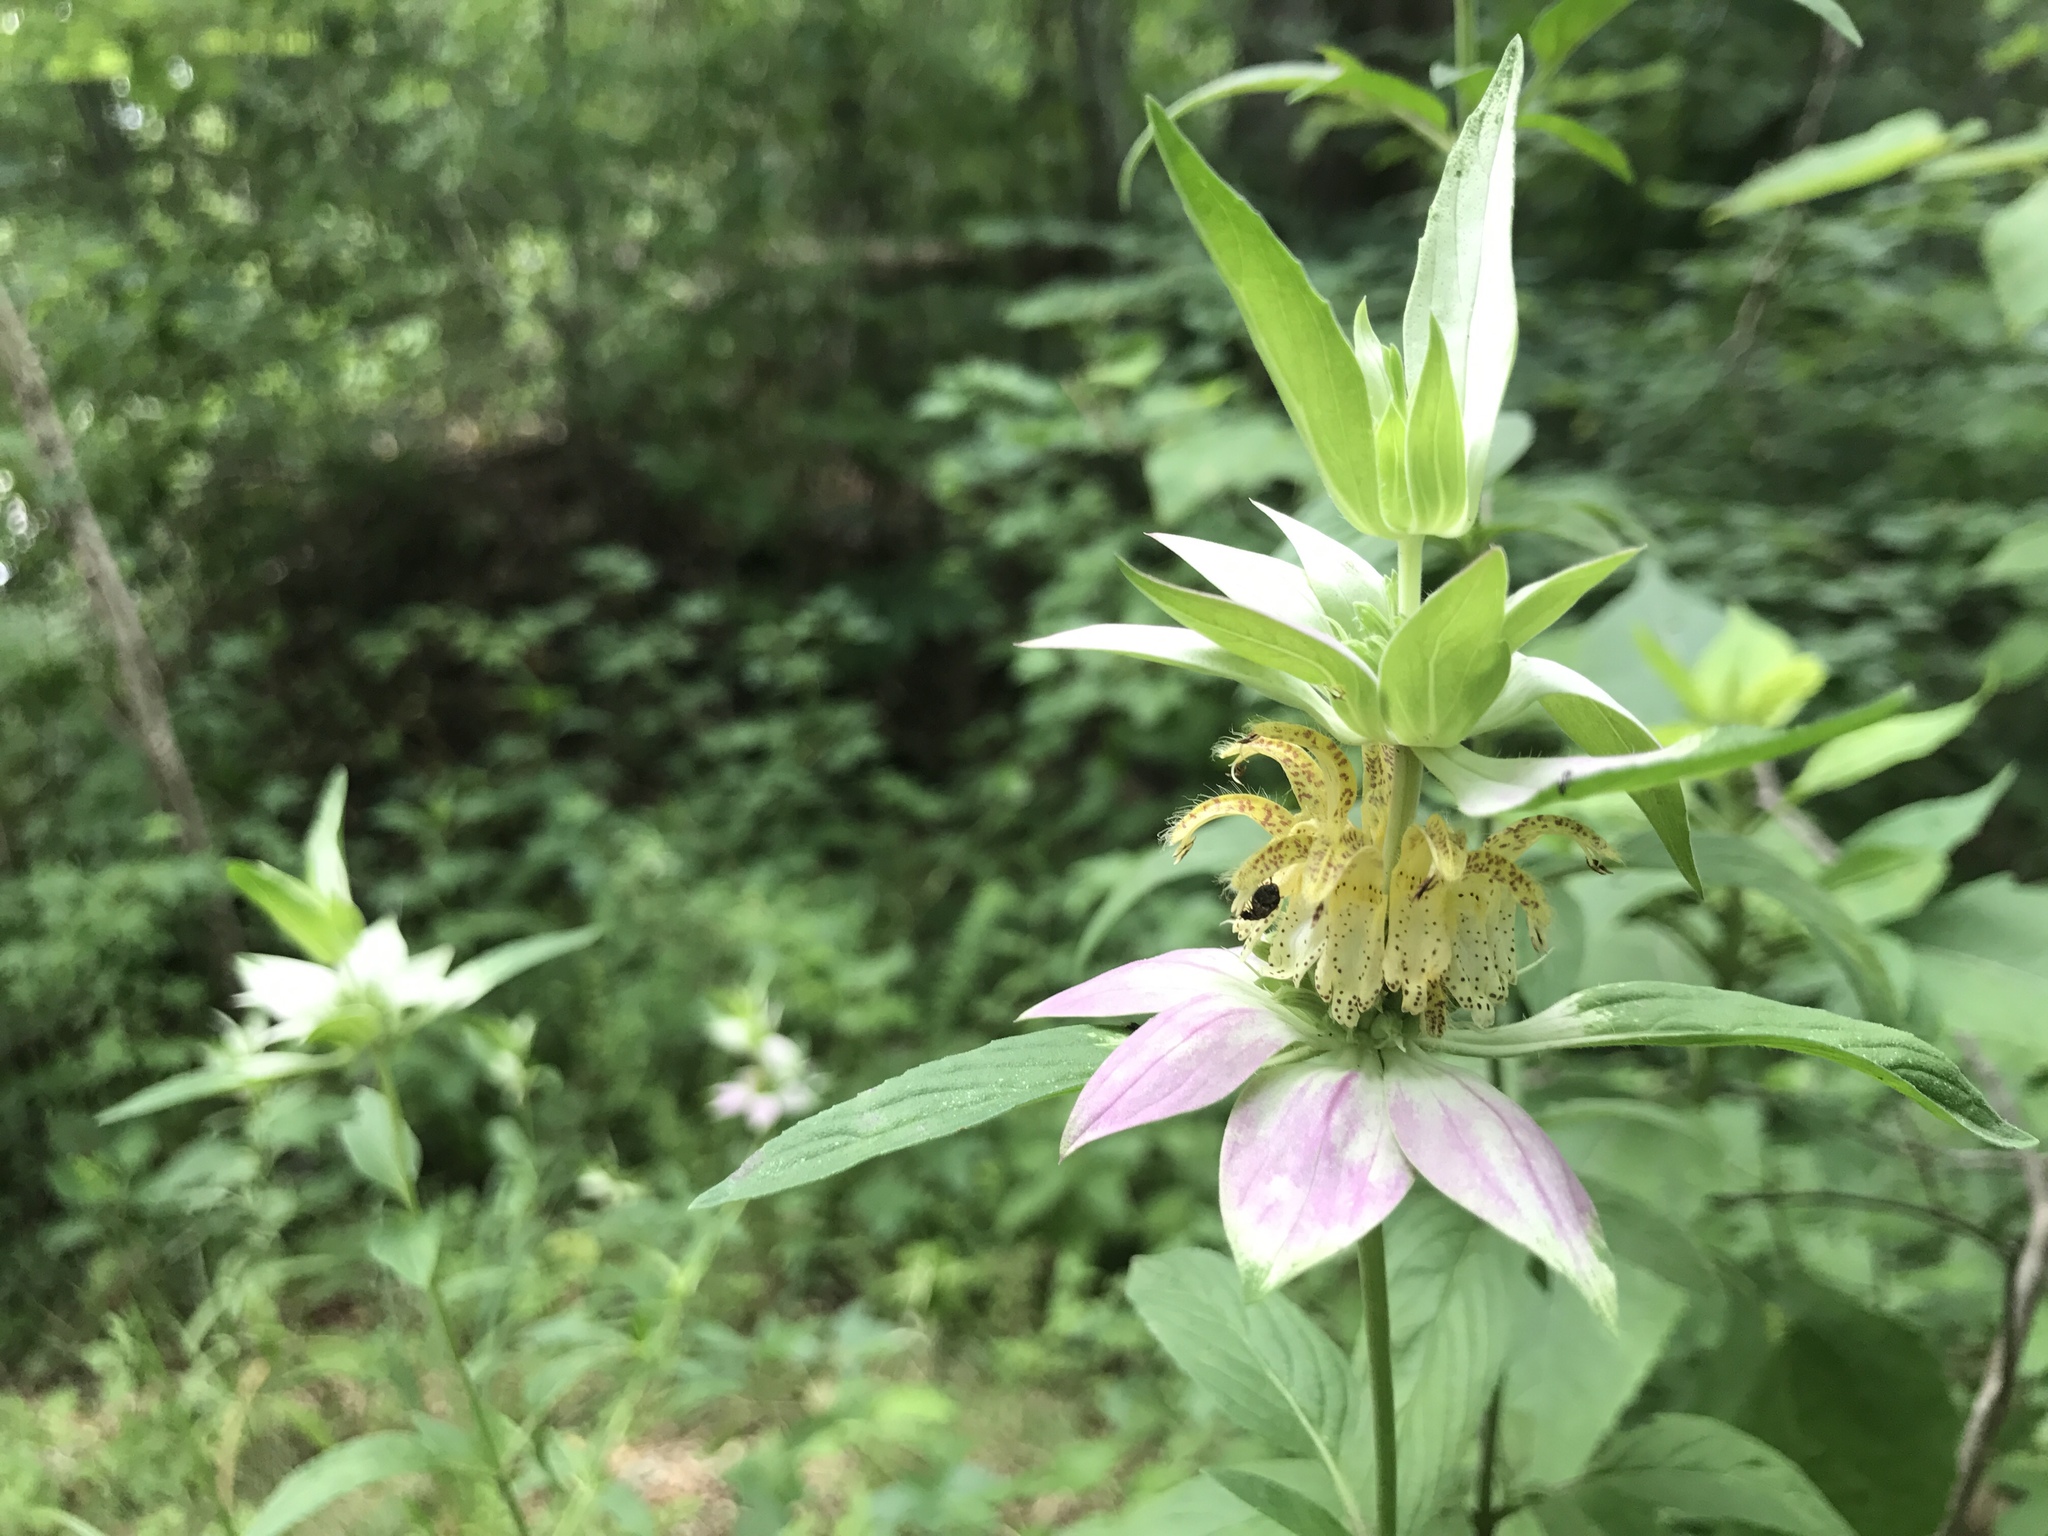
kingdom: Plantae
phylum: Tracheophyta
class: Magnoliopsida
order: Lamiales
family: Lamiaceae
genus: Monarda
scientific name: Monarda punctata
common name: Dotted monarda
